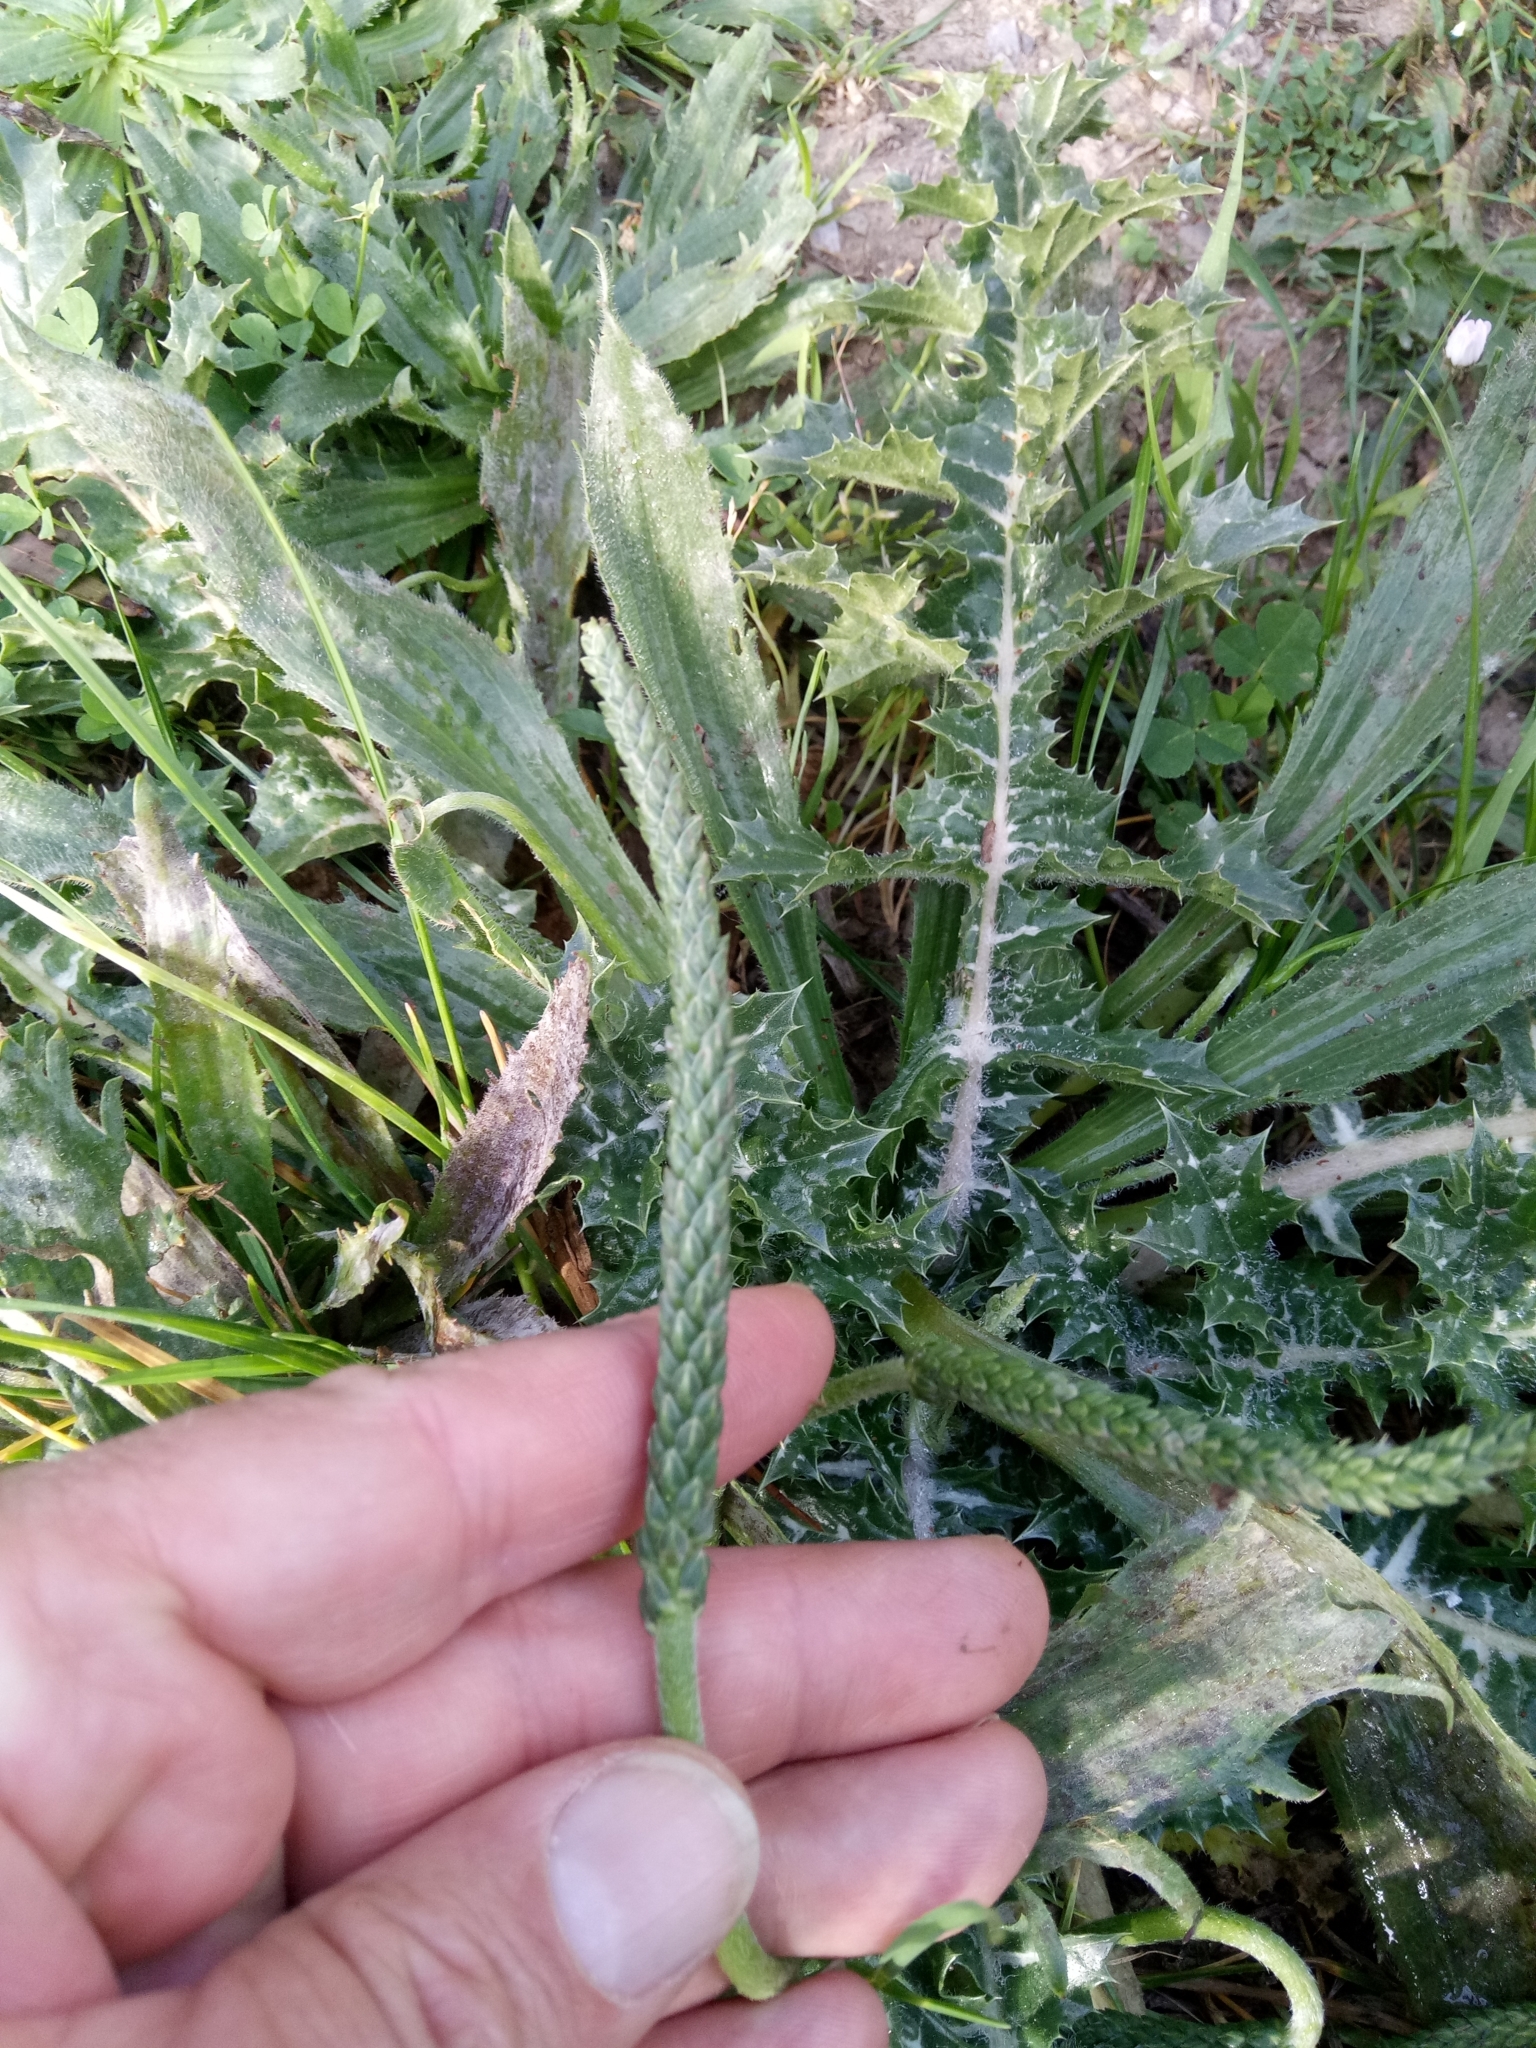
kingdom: Plantae
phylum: Tracheophyta
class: Magnoliopsida
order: Lamiales
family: Plantaginaceae
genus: Plantago
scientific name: Plantago serraria
